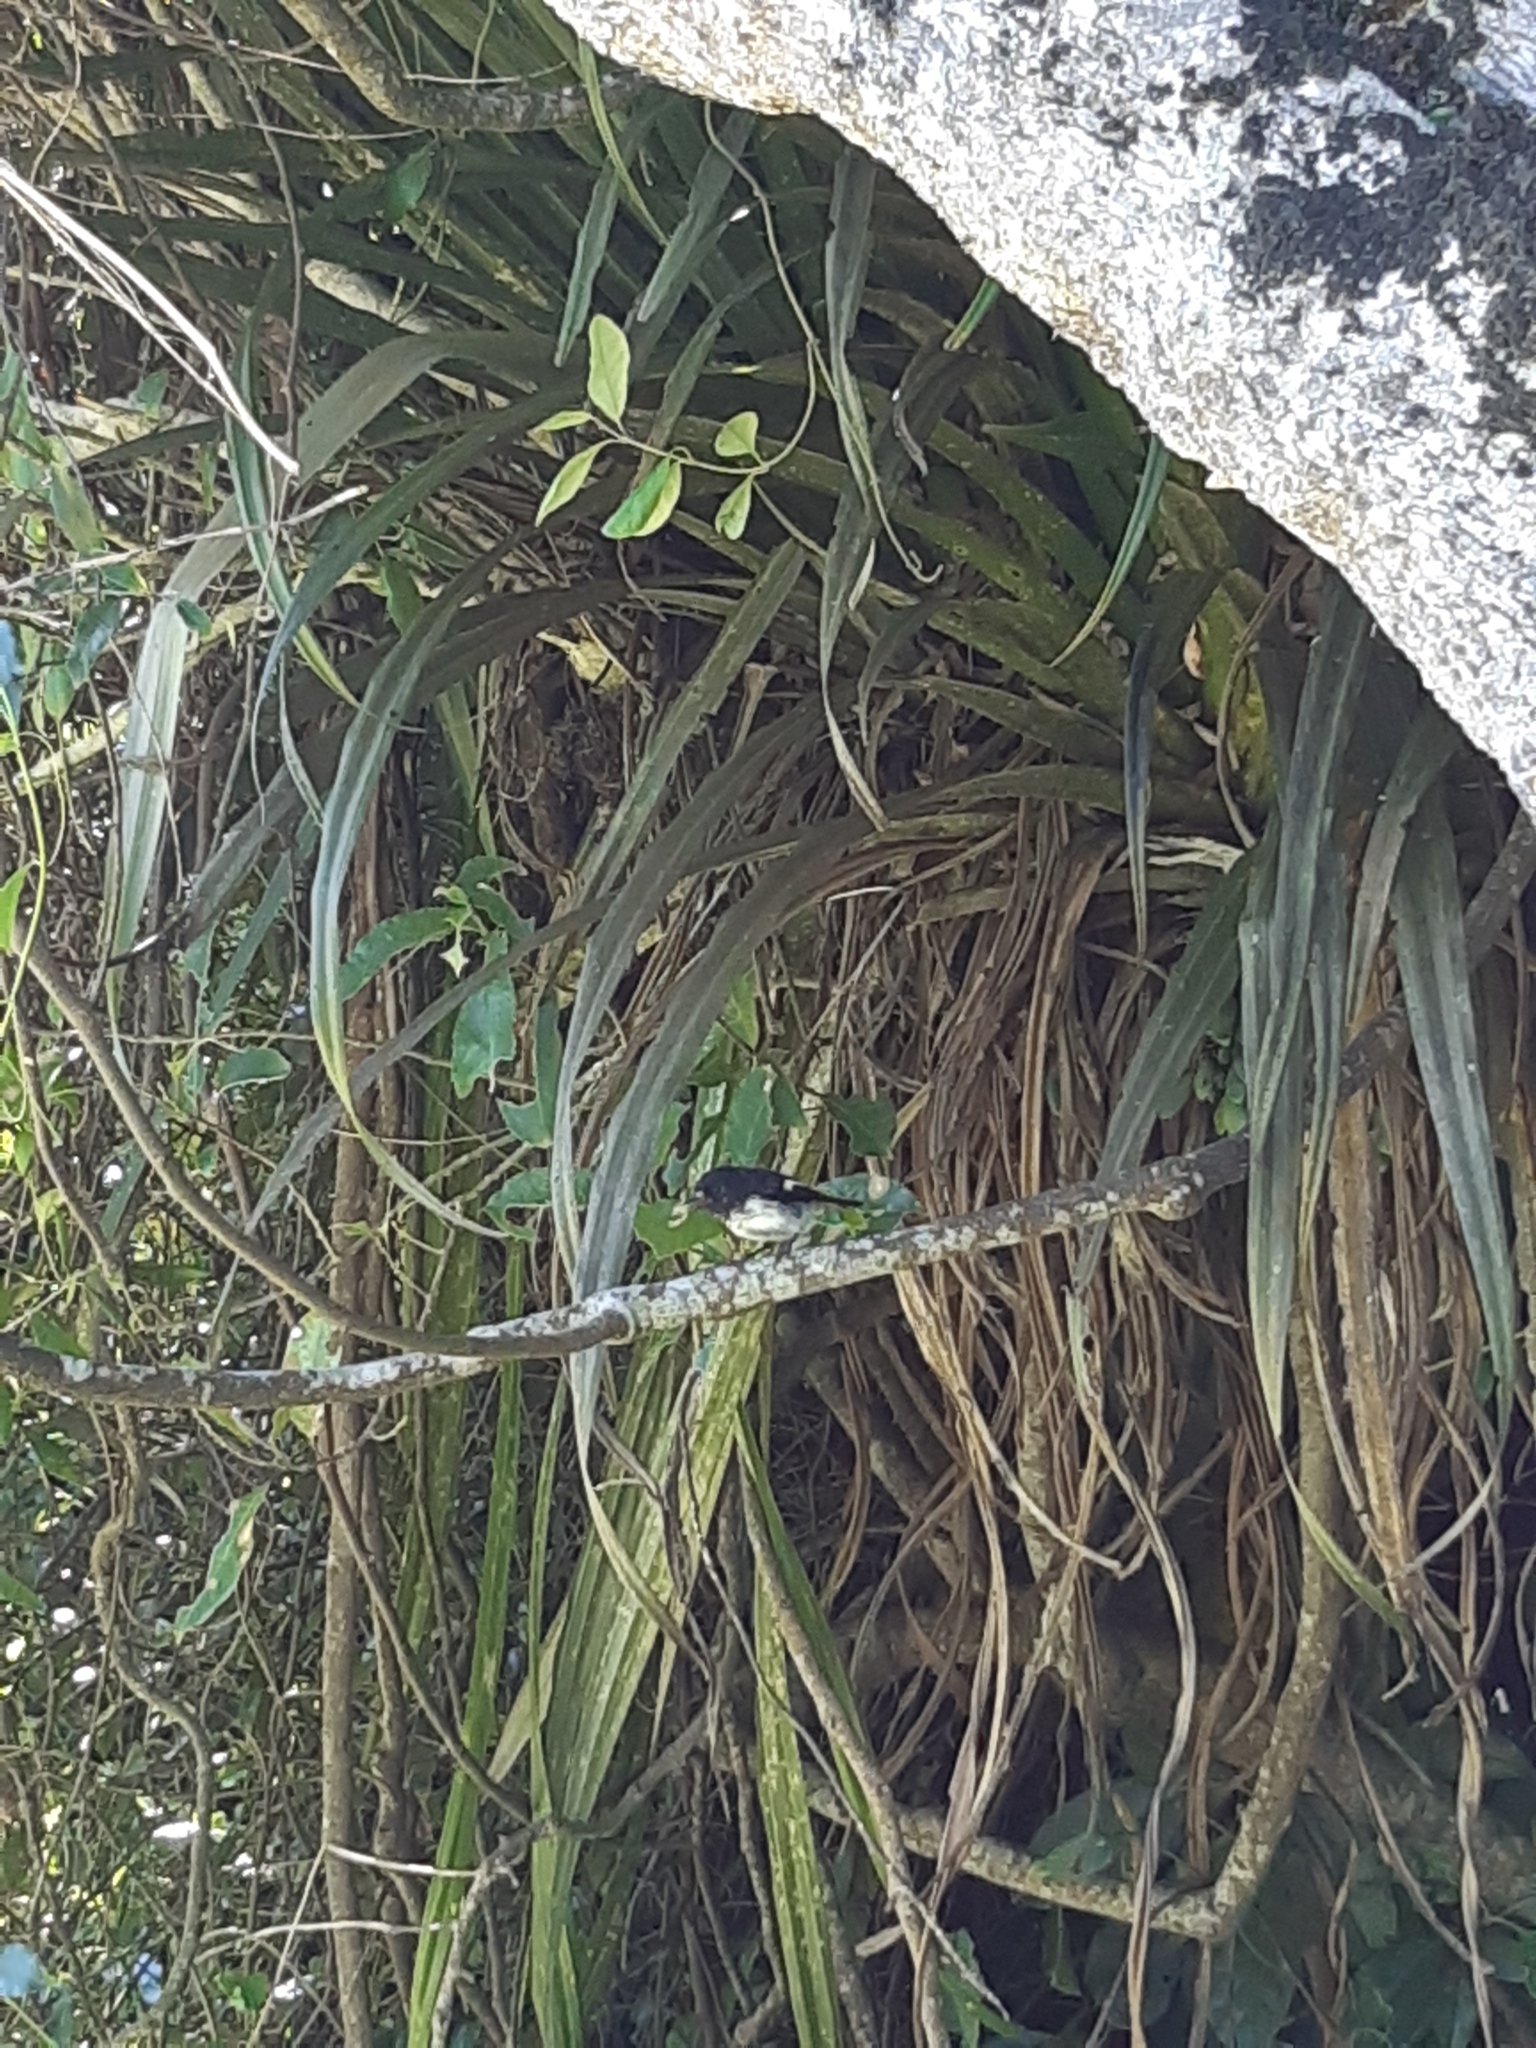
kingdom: Animalia
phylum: Chordata
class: Aves
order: Passeriformes
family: Petroicidae
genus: Petroica
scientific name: Petroica macrocephala
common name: Tomtit
